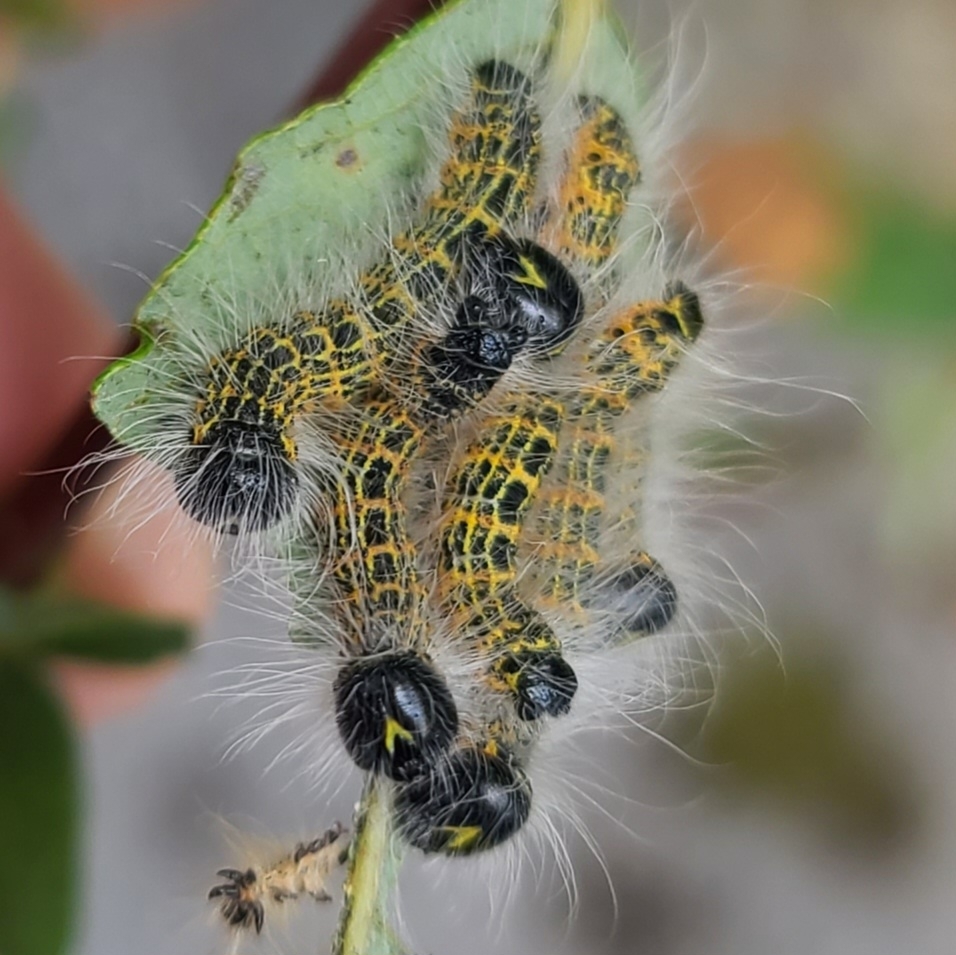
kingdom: Animalia
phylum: Arthropoda
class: Insecta
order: Lepidoptera
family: Notodontidae
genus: Phalera
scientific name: Phalera bucephala
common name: Buff-tip
